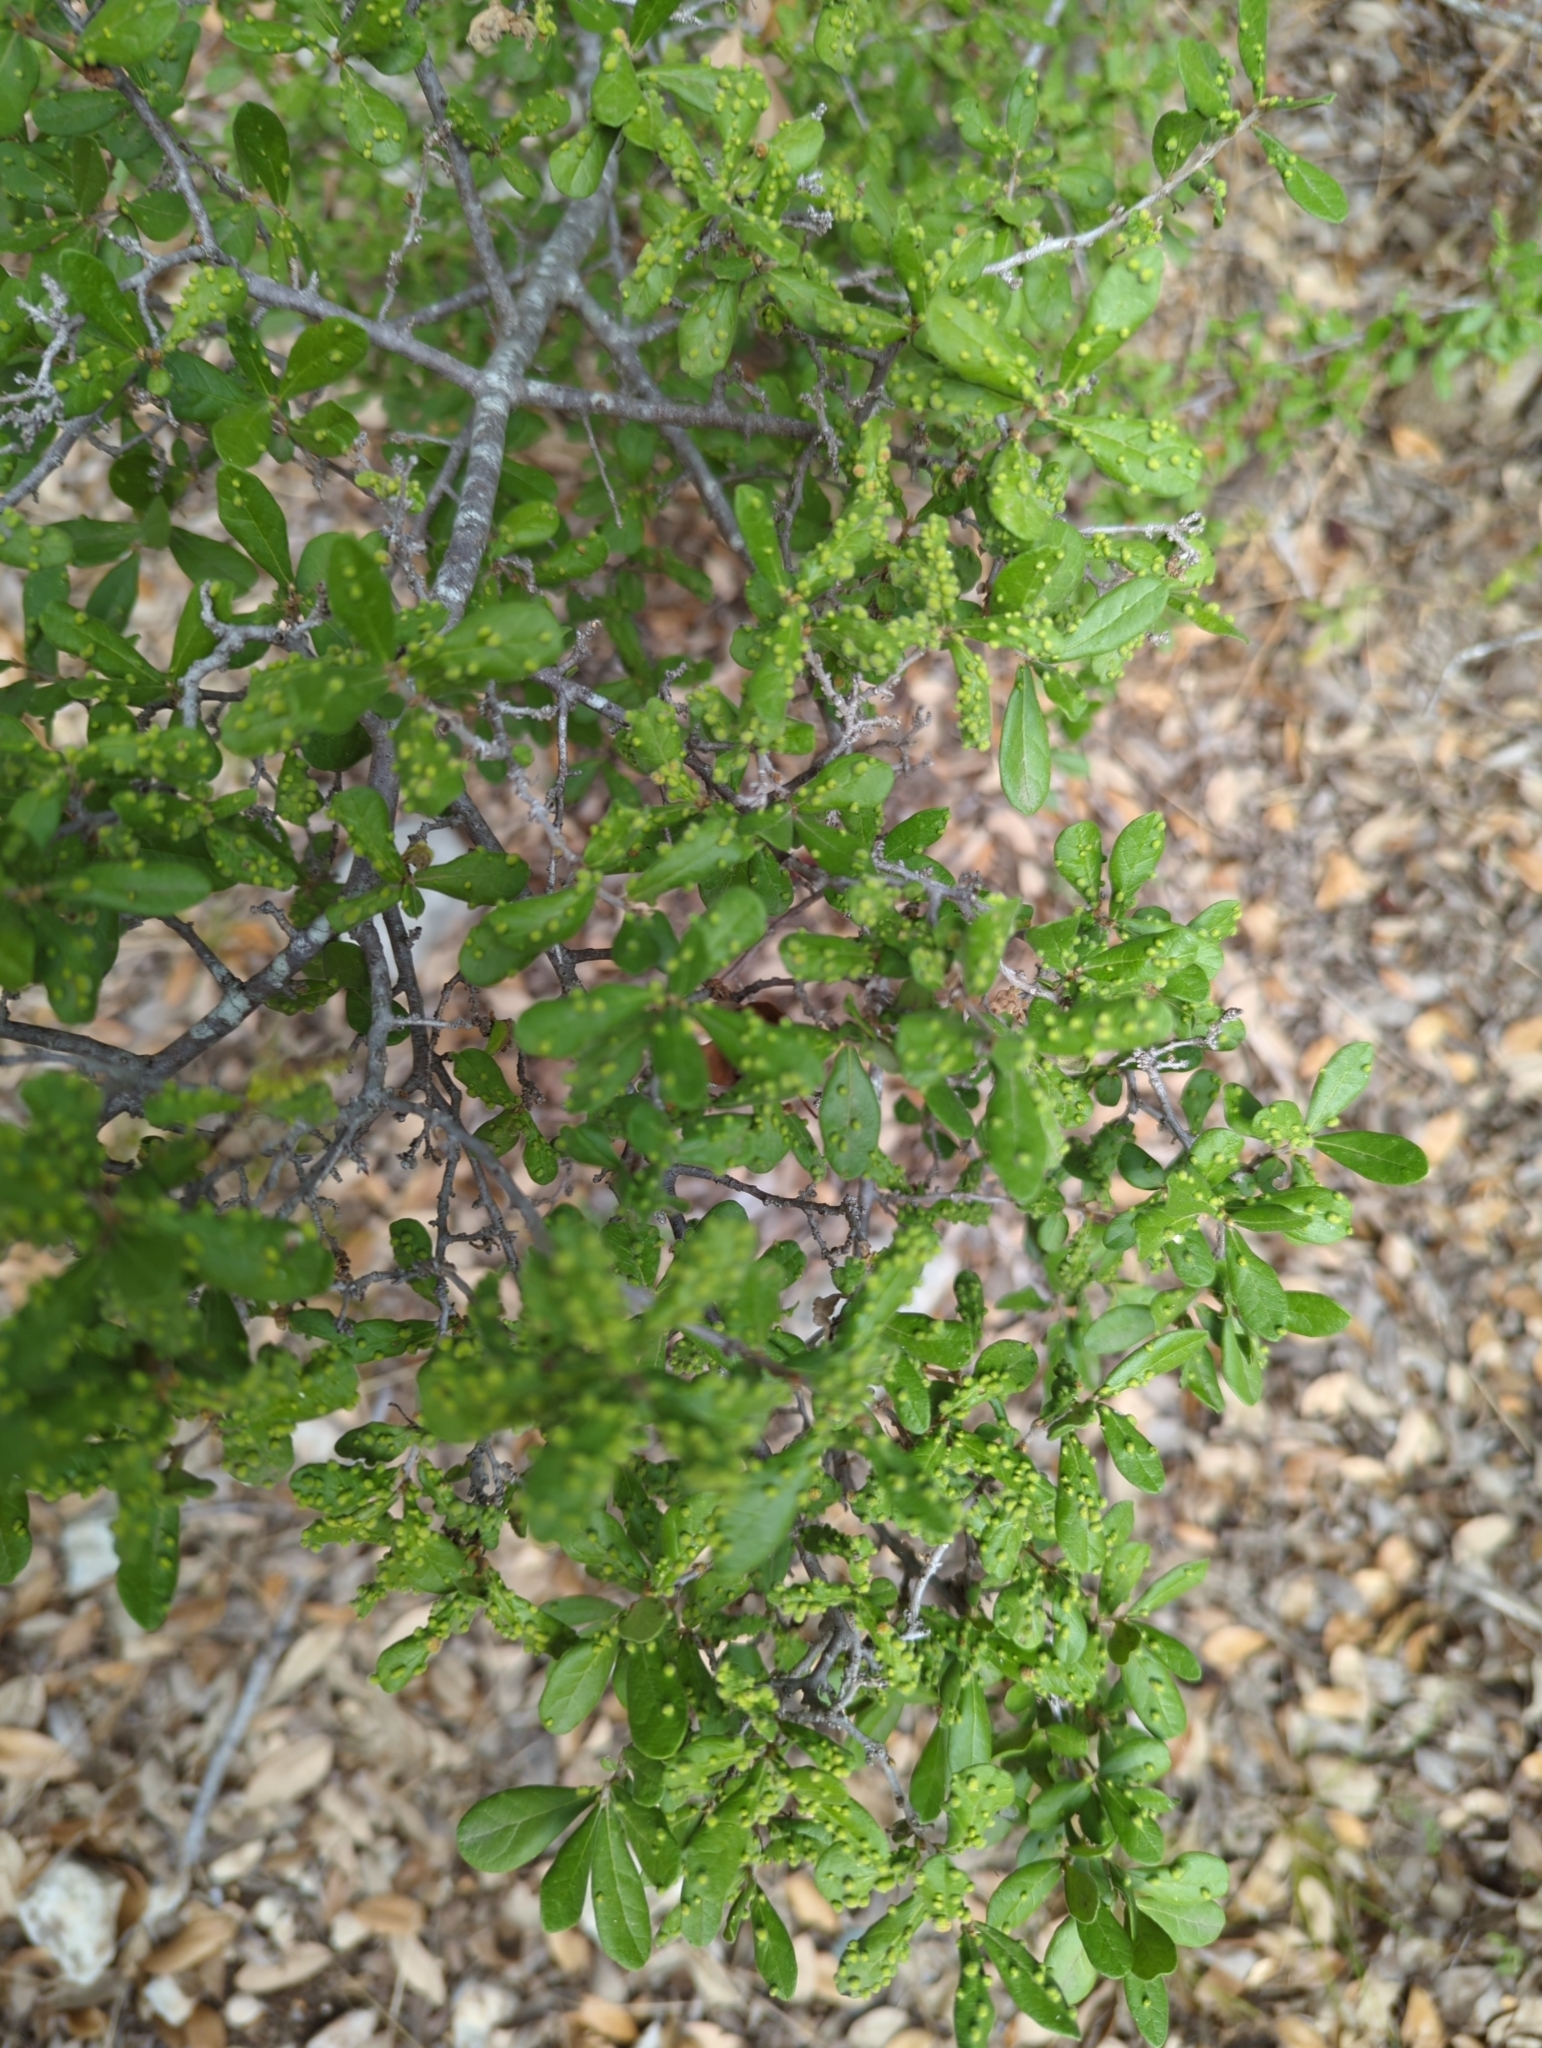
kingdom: Plantae
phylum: Tracheophyta
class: Magnoliopsida
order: Ericales
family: Ebenaceae
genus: Diospyros
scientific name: Diospyros texana
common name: Texas persimmon
